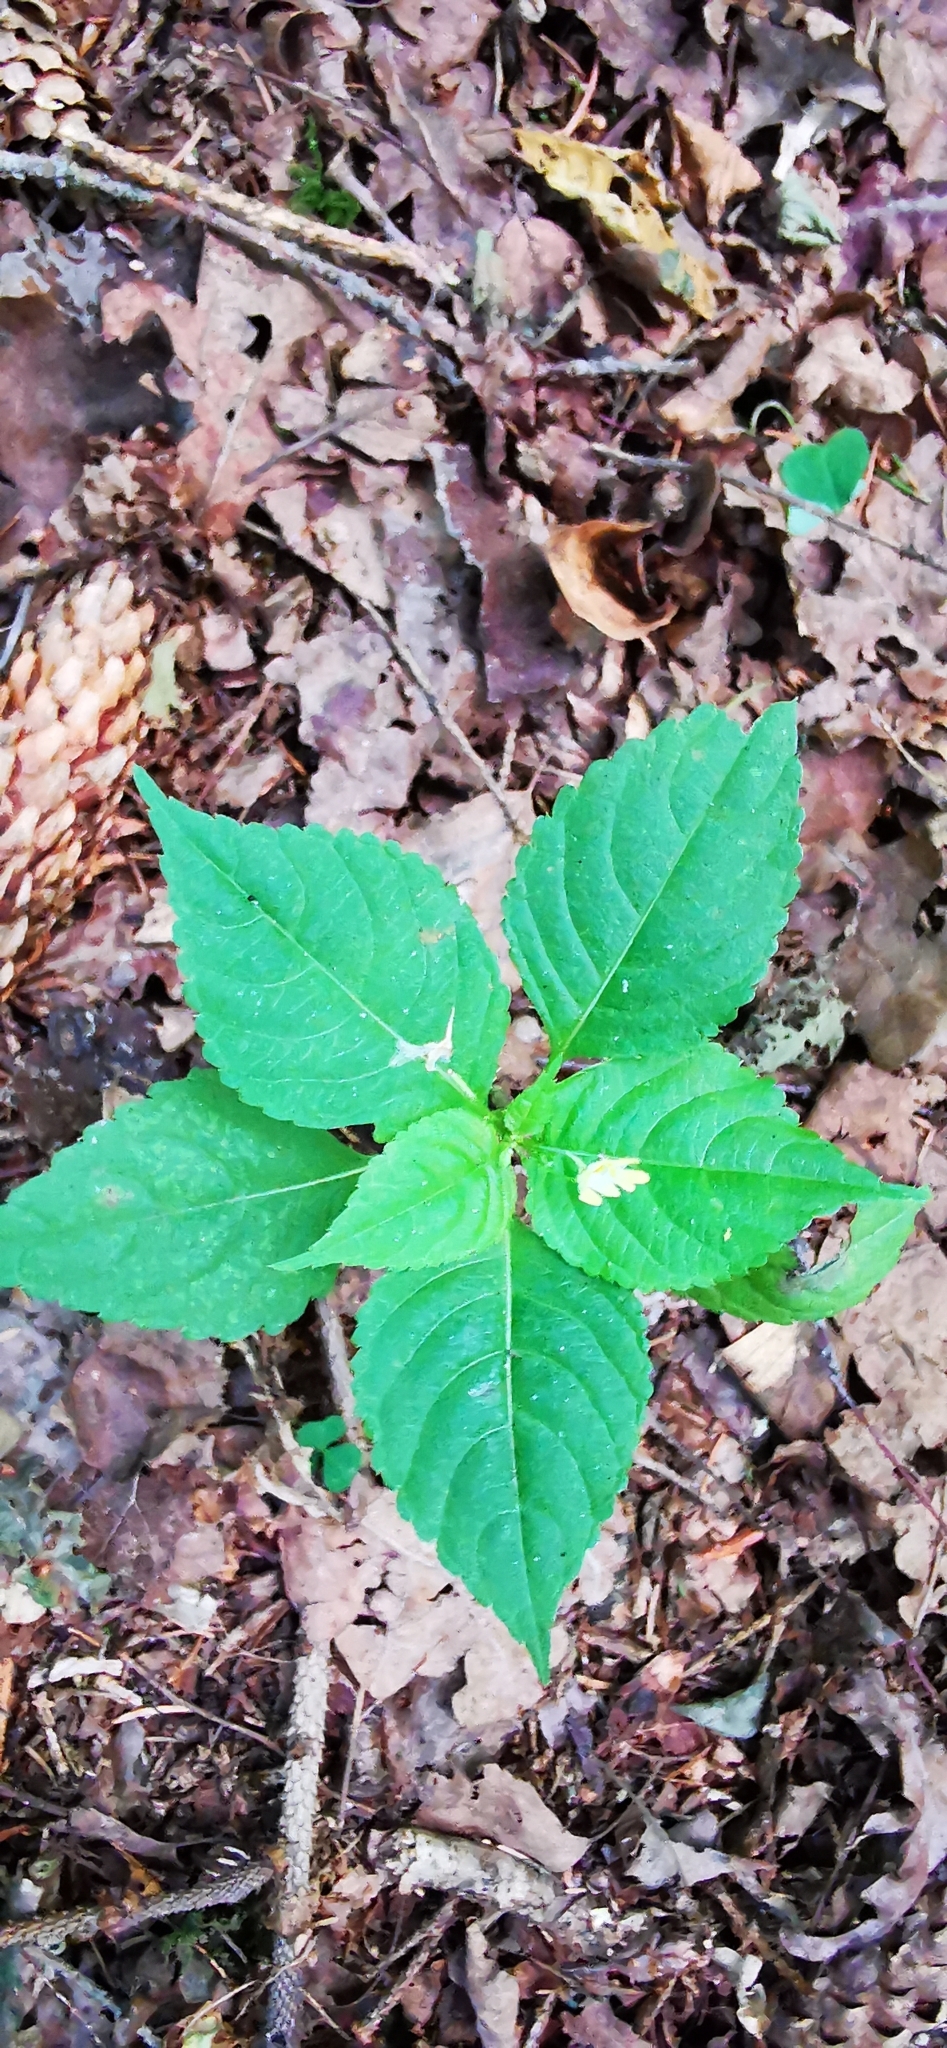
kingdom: Plantae
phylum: Tracheophyta
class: Magnoliopsida
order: Ericales
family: Balsaminaceae
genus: Impatiens
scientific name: Impatiens parviflora
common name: Small balsam
